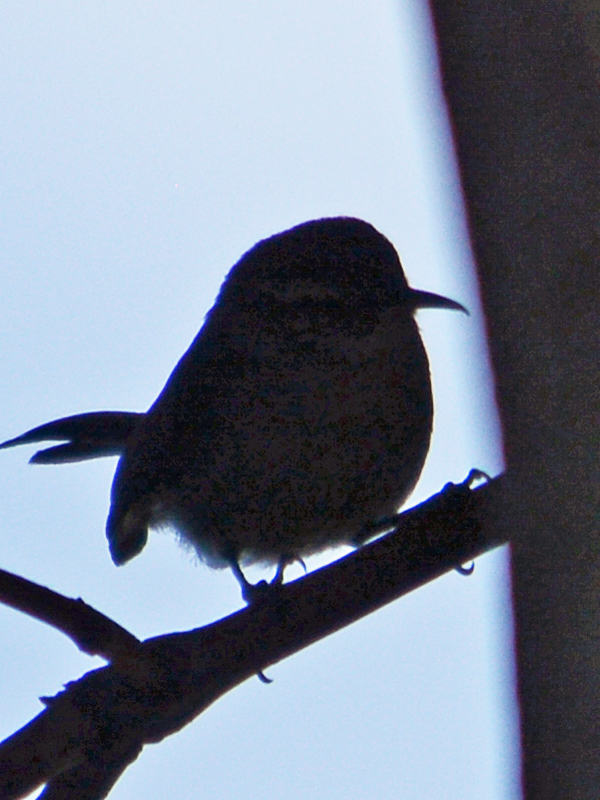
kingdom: Animalia
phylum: Chordata
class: Aves
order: Passeriformes
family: Troglodytidae
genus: Thryomanes
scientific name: Thryomanes bewickii
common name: Bewick's wren
